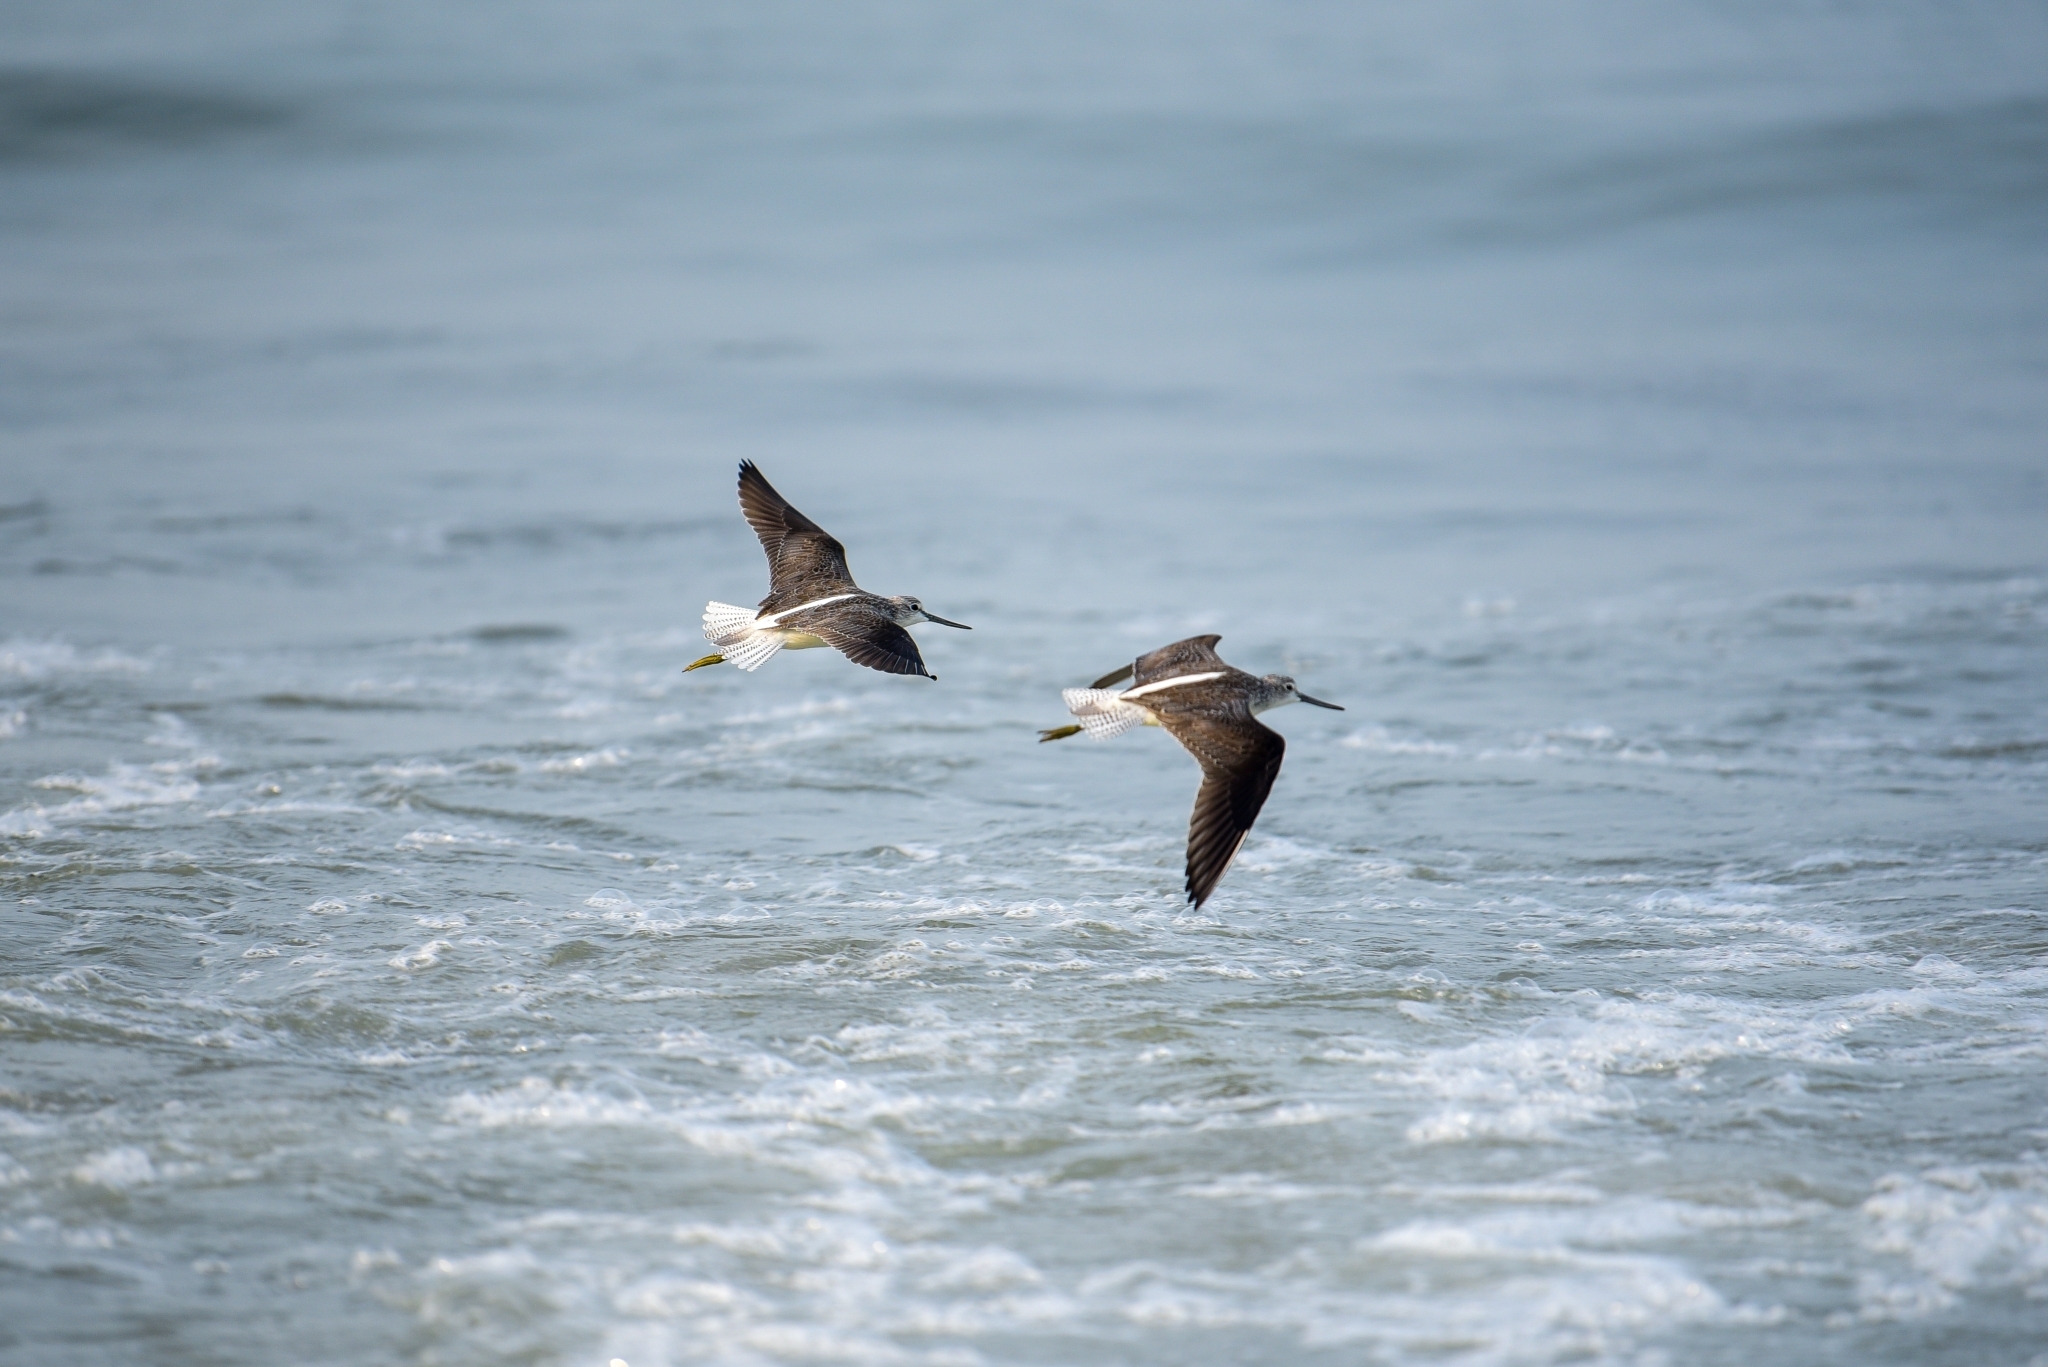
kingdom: Animalia
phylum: Chordata
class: Aves
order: Charadriiformes
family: Scolopacidae
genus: Tringa
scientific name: Tringa nebularia
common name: Common greenshank
